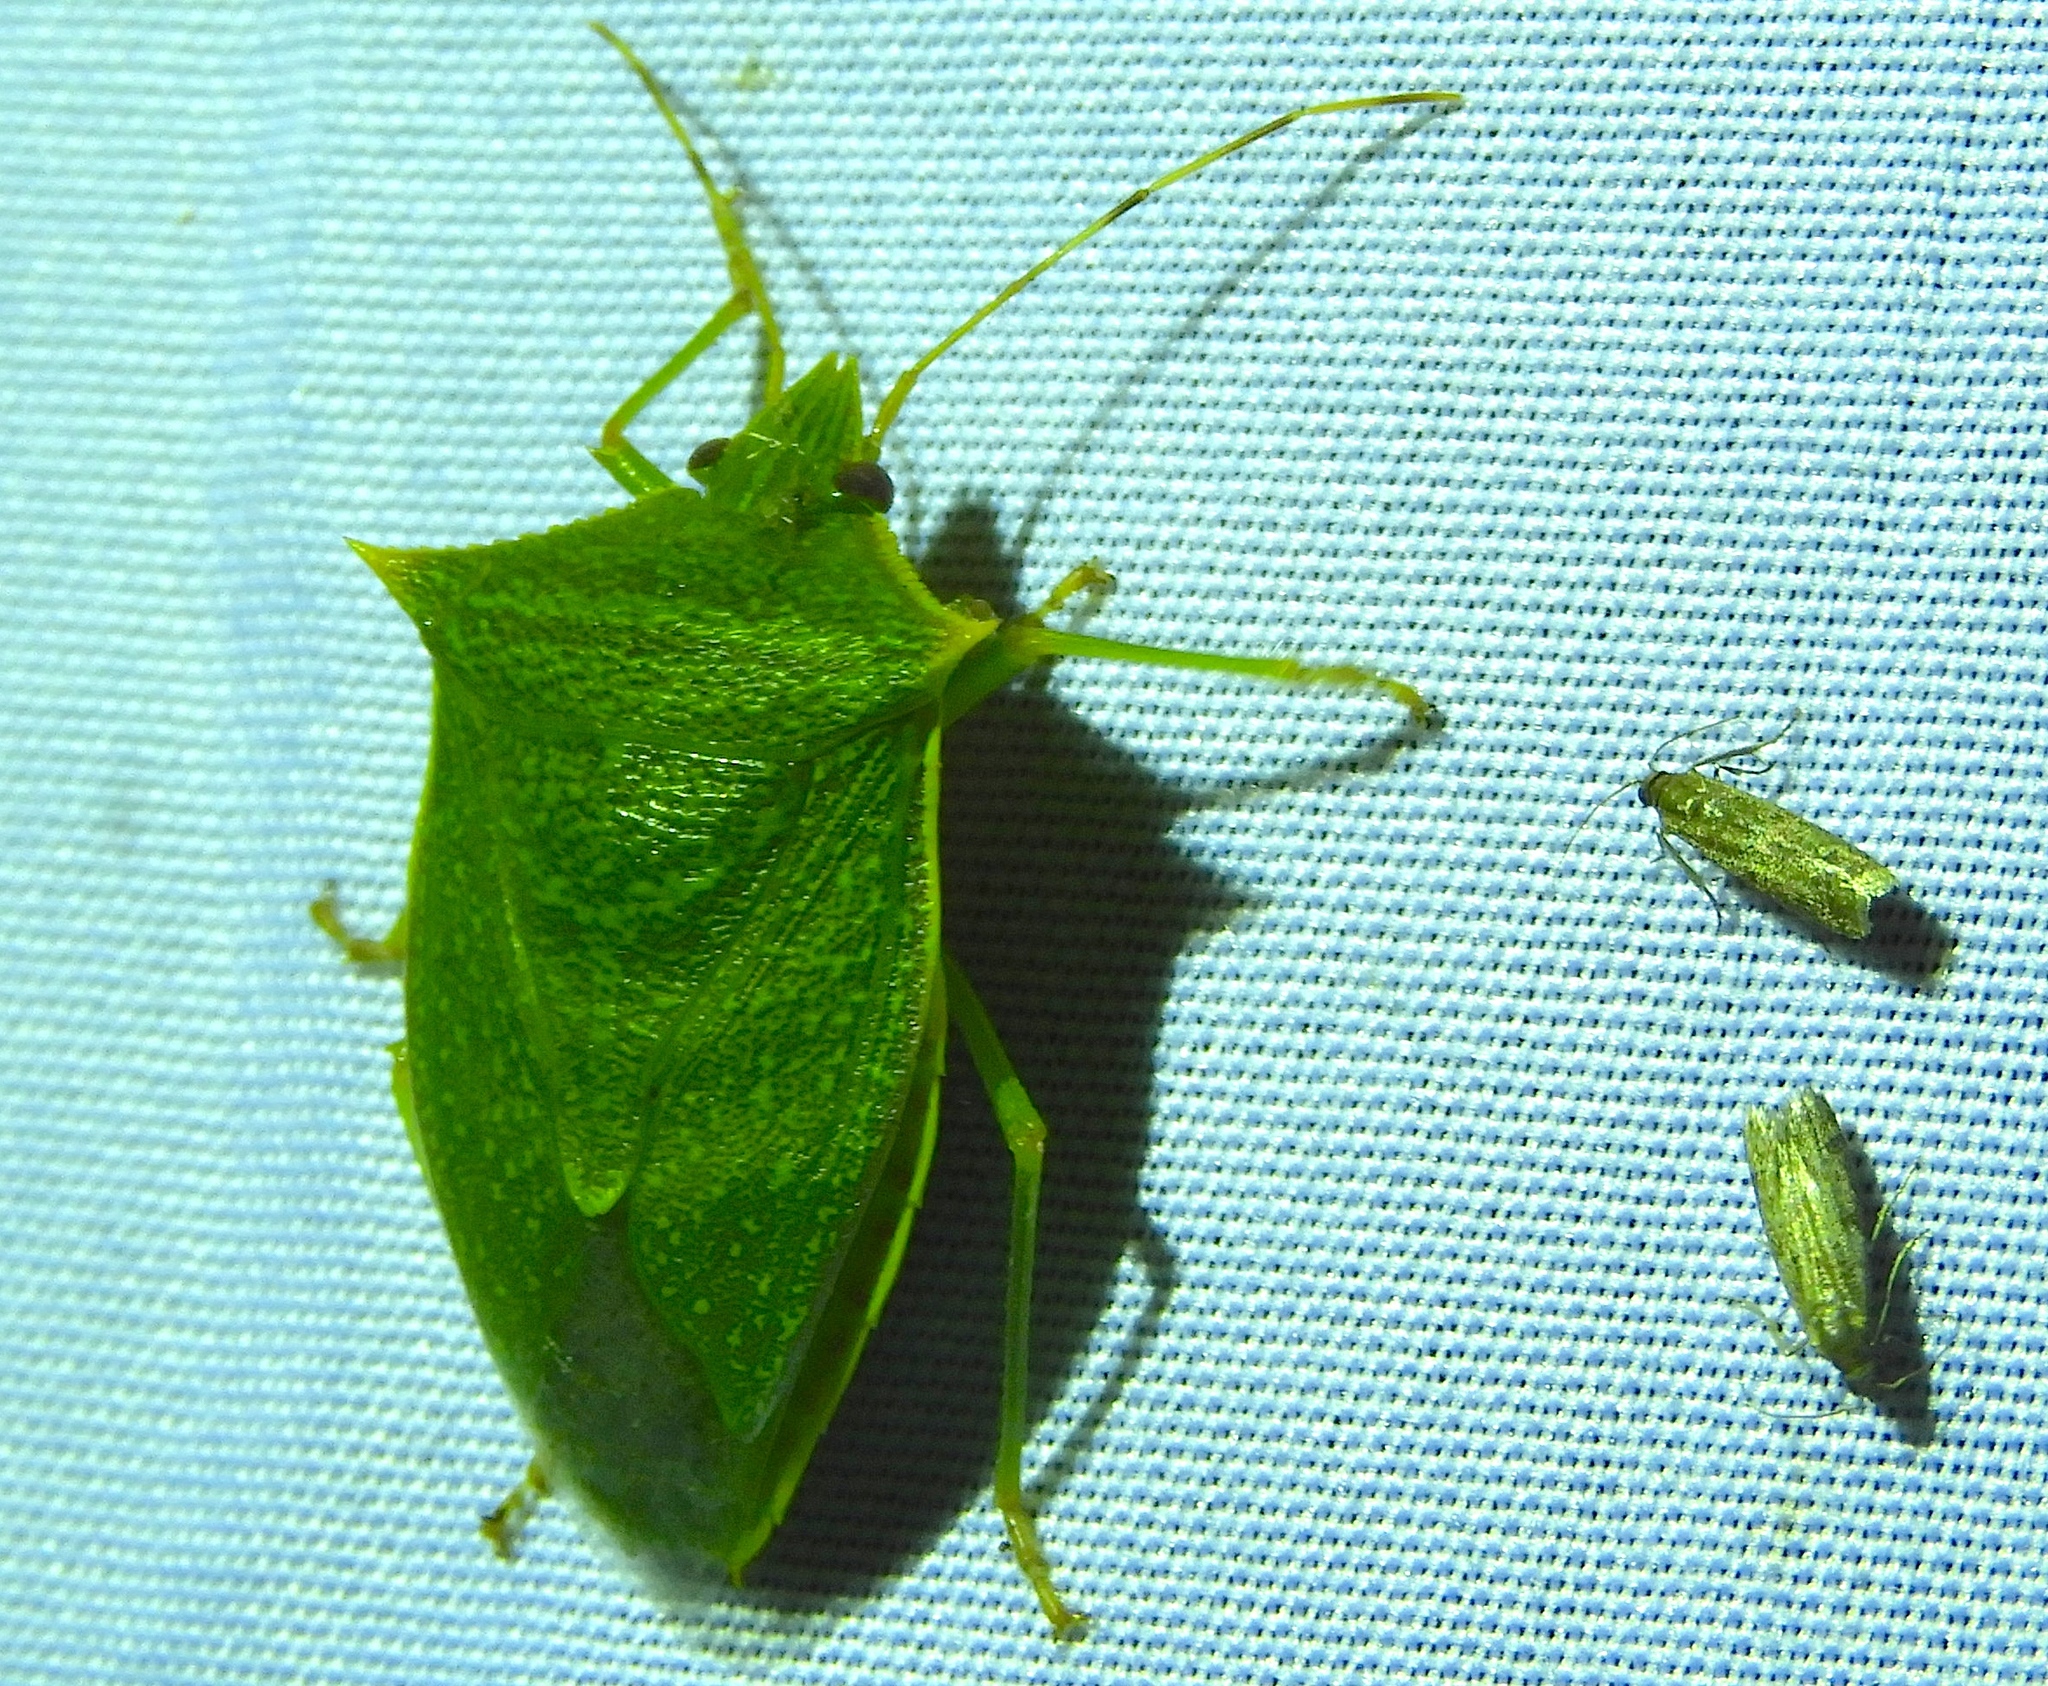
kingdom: Animalia
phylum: Arthropoda
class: Insecta
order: Hemiptera
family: Pentatomidae
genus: Loxa
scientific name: Loxa
